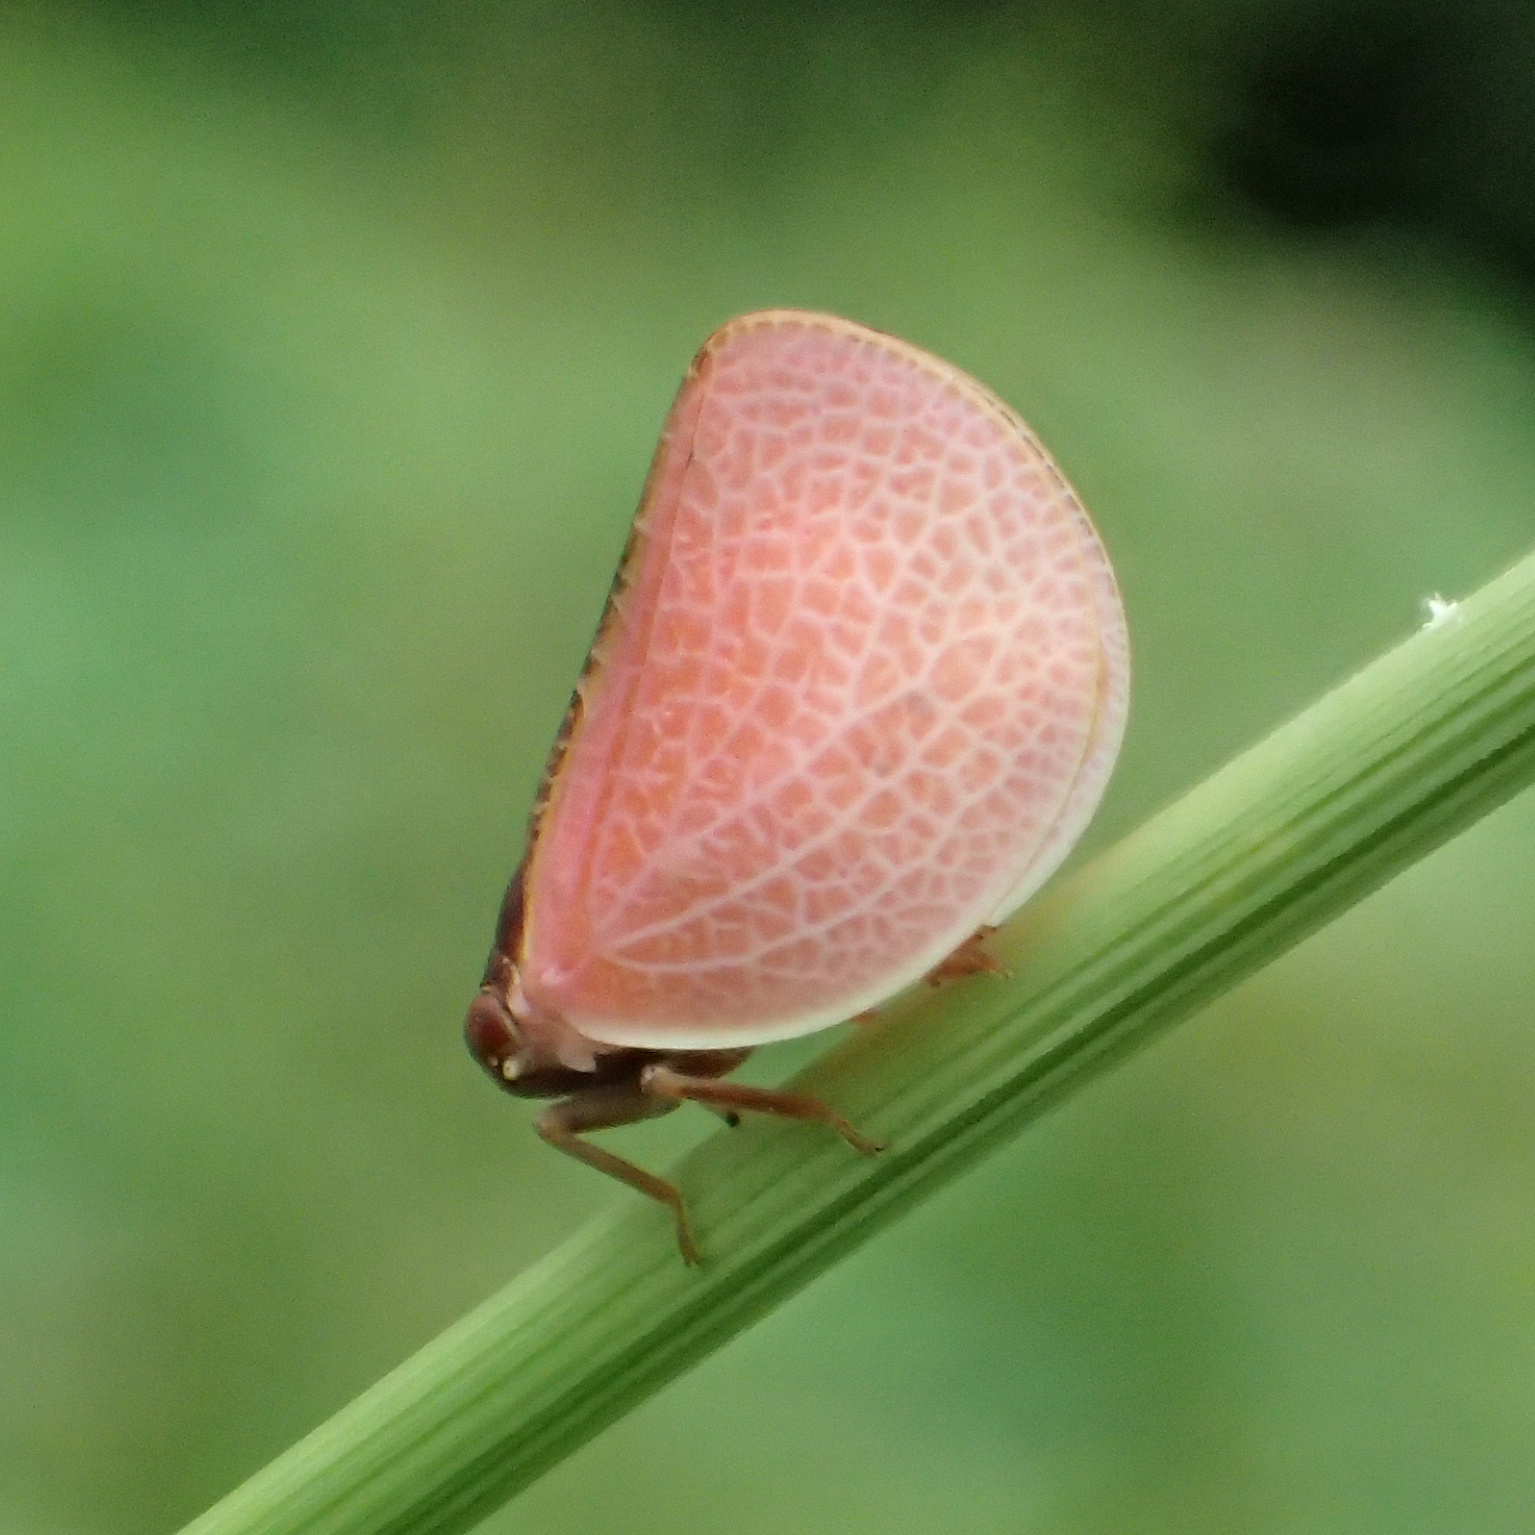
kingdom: Animalia
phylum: Arthropoda
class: Insecta
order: Hemiptera
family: Acanaloniidae
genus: Acanalonia
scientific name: Acanalonia bivittata
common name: Two-striped planthopper
